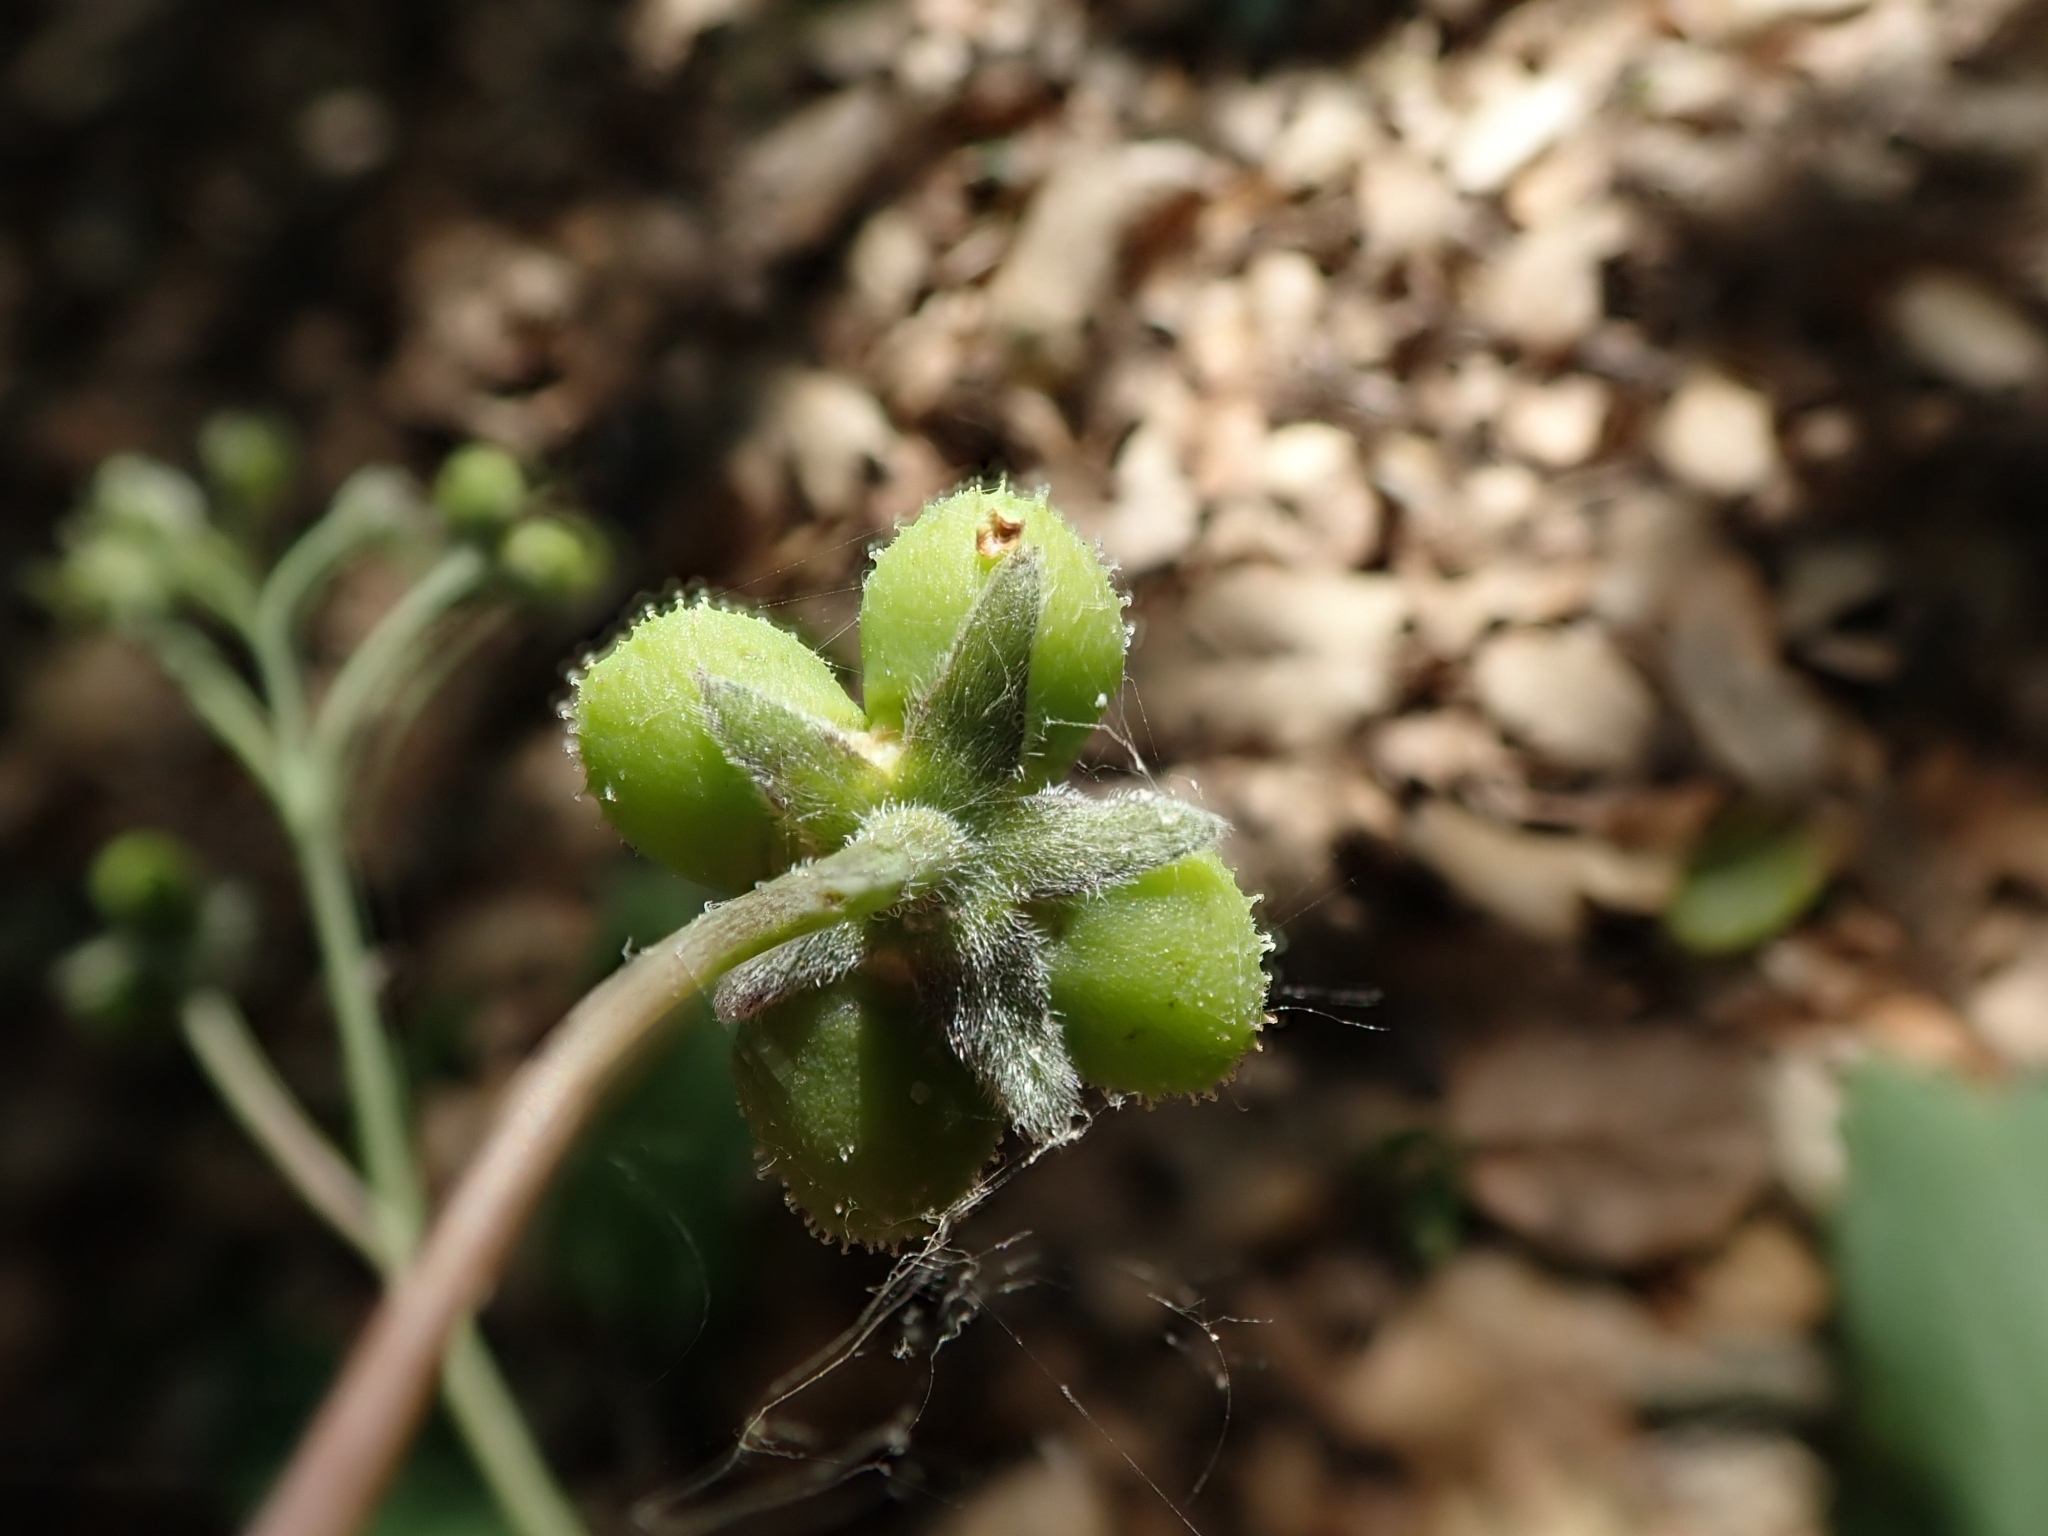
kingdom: Plantae
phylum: Tracheophyta
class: Magnoliopsida
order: Boraginales
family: Boraginaceae
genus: Adelinia
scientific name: Adelinia grande
